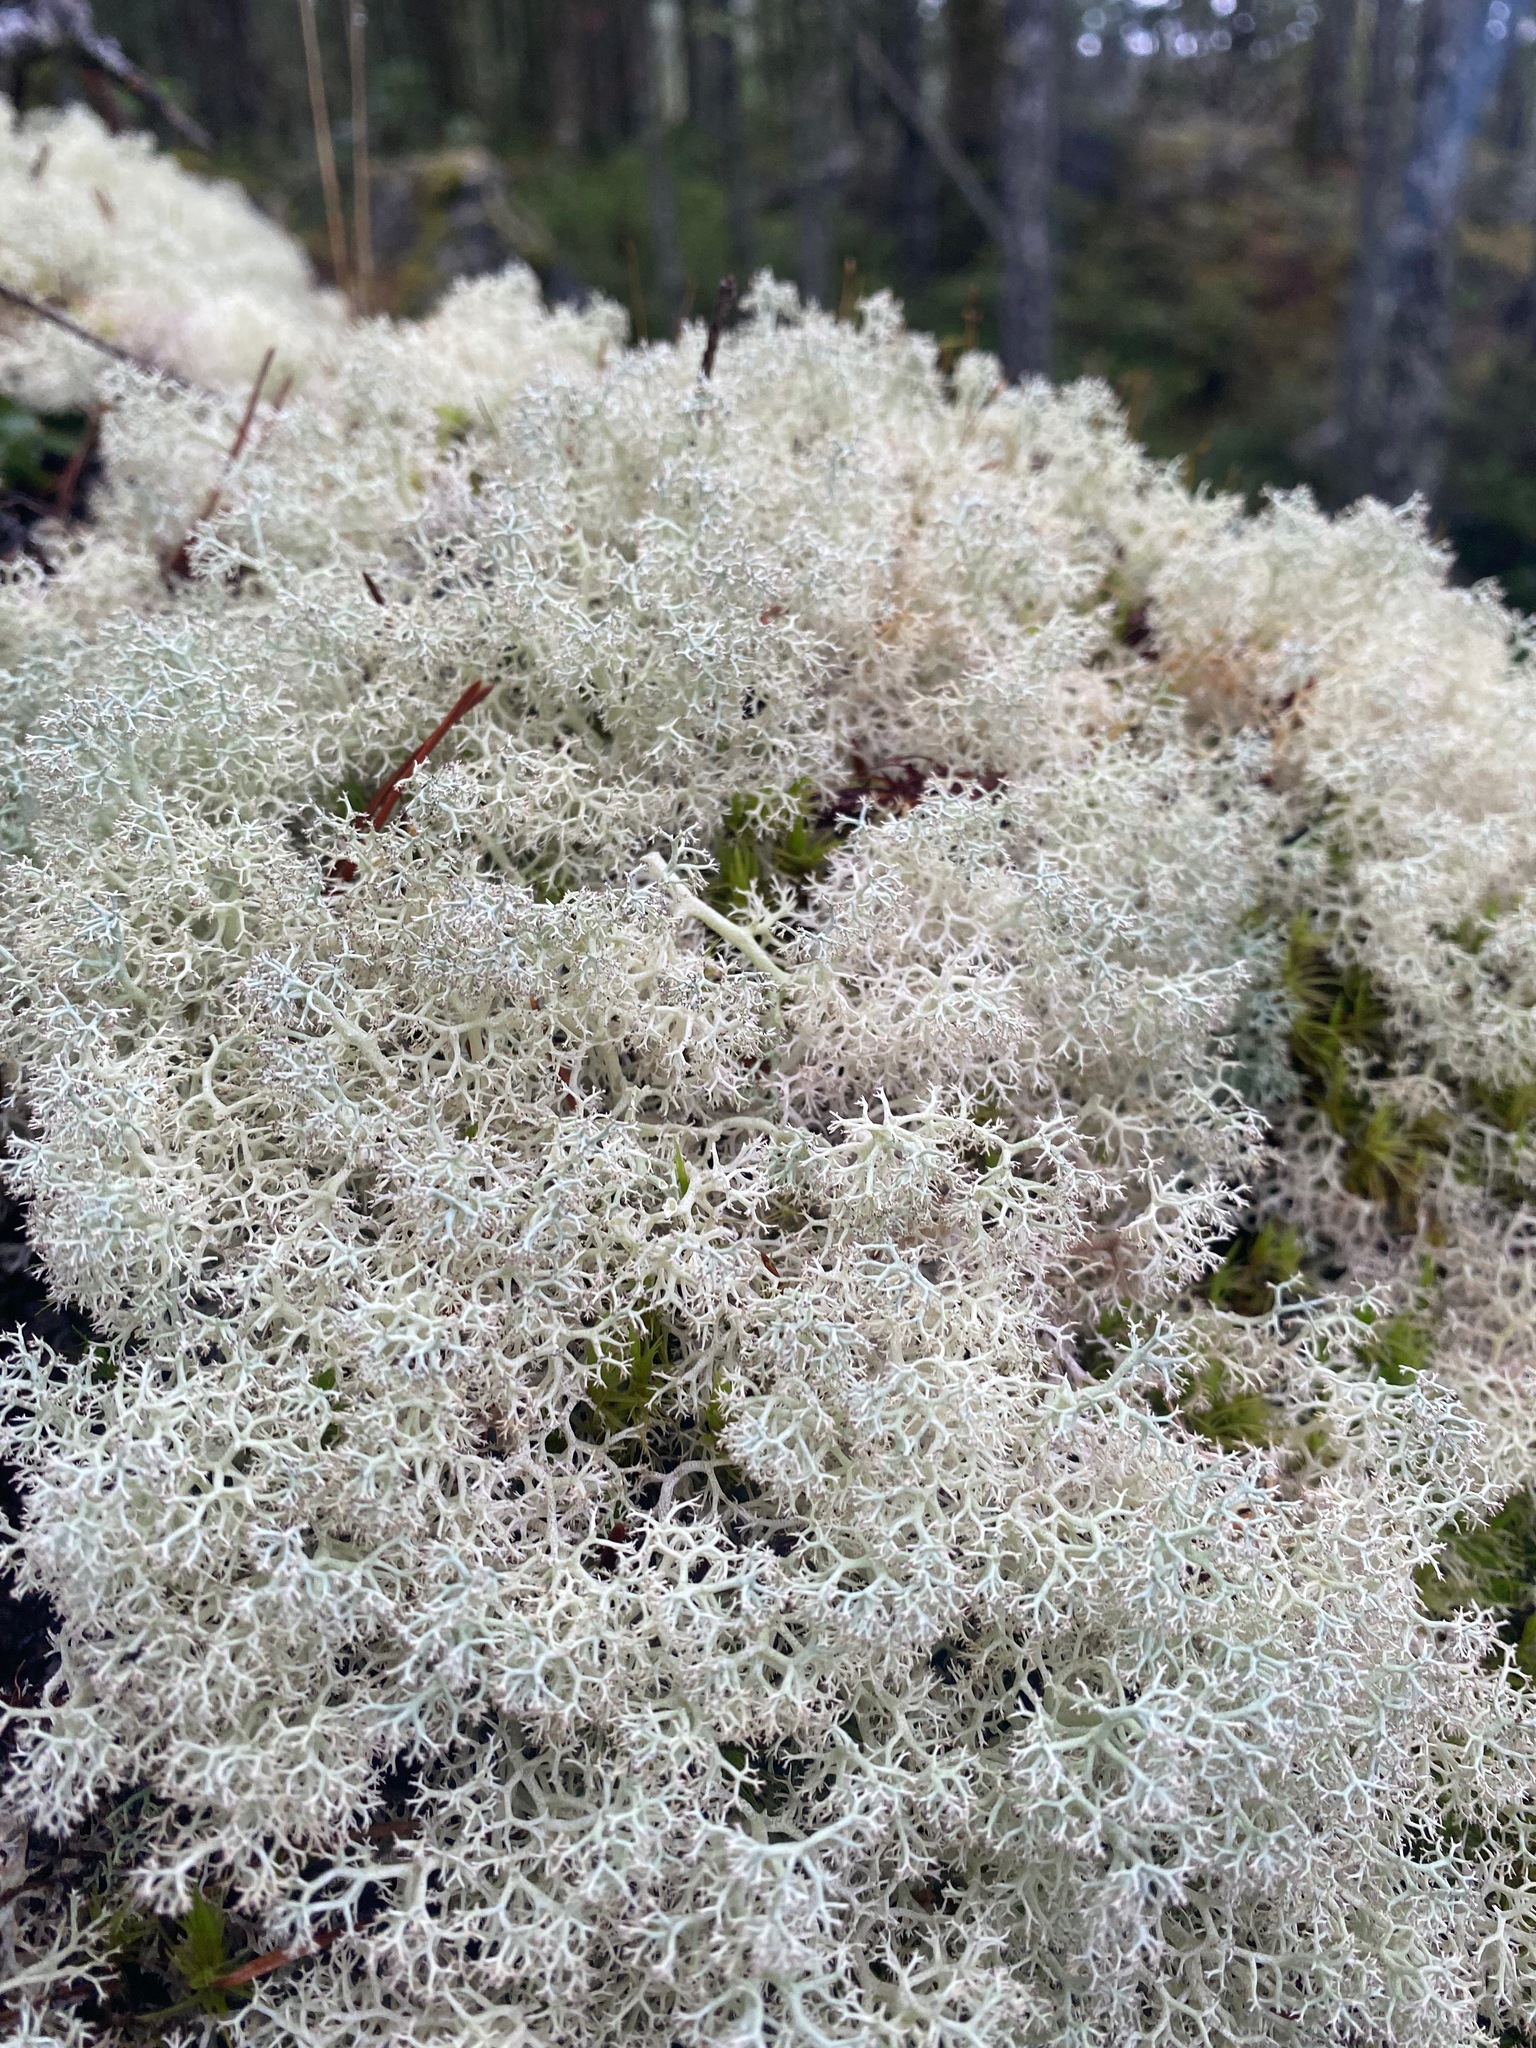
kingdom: Fungi
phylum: Ascomycota
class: Lecanoromycetes
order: Lecanorales
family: Cladoniaceae
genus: Cladonia
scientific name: Cladonia portentosa
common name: Reindeer lichen
